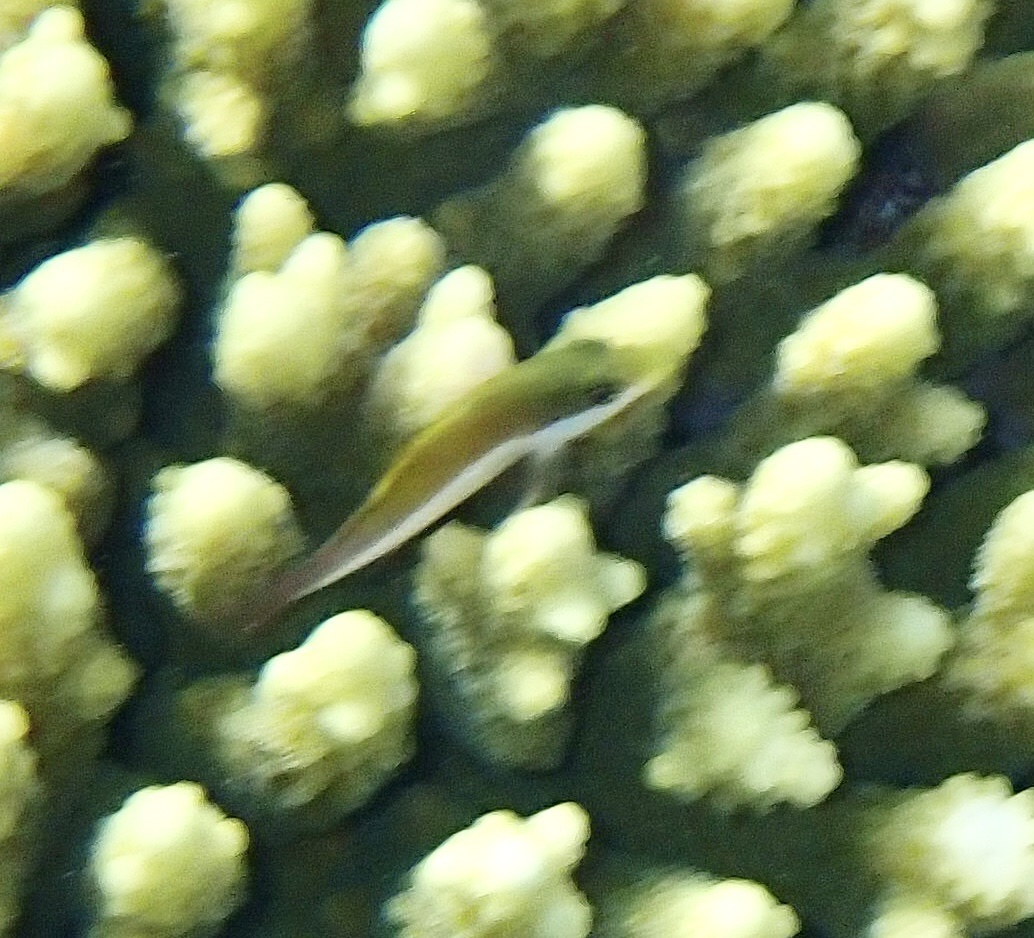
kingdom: Animalia
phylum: Chordata
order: Perciformes
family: Cirrhitidae
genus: Paracirrhites
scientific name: Paracirrhites forsteri
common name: Freckled hawkfish
